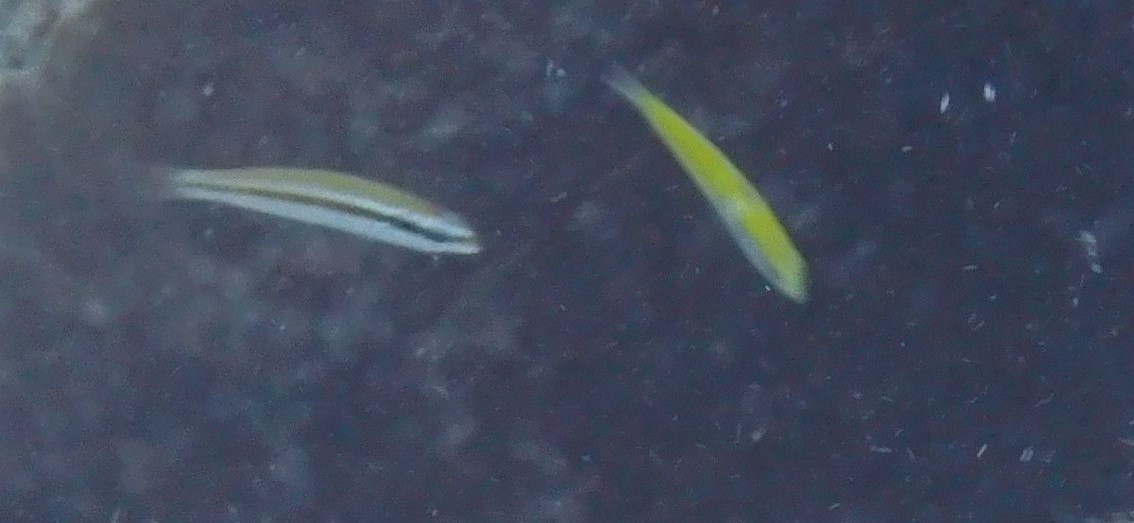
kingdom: Animalia
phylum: Chordata
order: Perciformes
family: Labridae
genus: Thalassoma
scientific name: Thalassoma bifasciatum
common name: Bluehead wrasse
